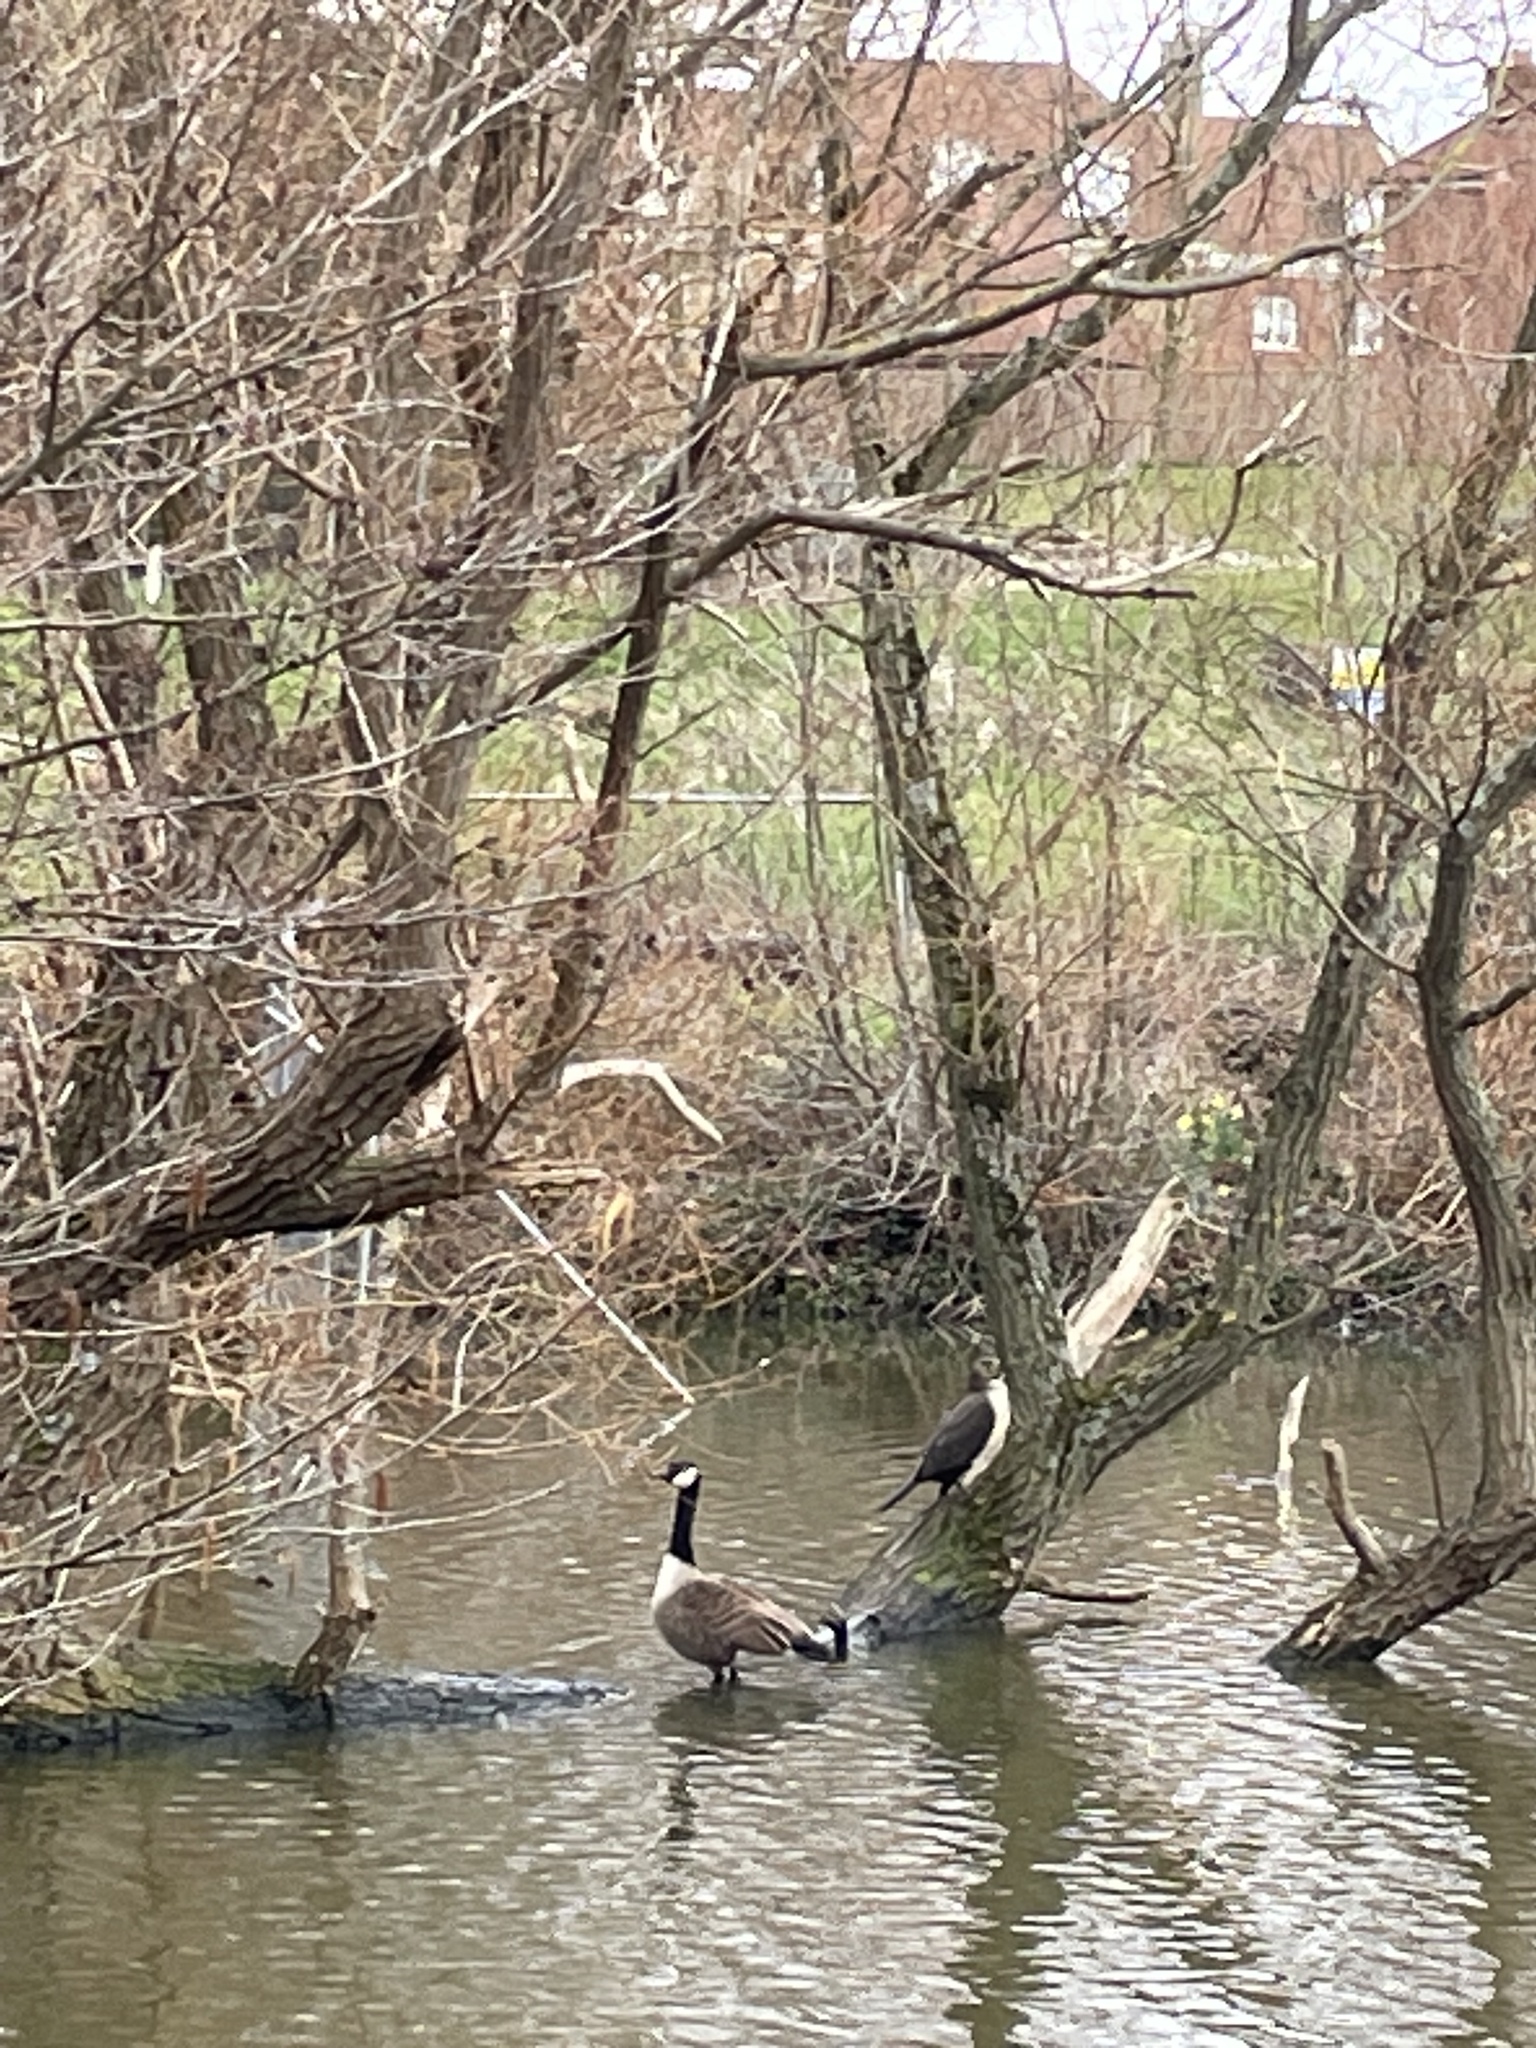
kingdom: Animalia
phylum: Chordata
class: Aves
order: Suliformes
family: Phalacrocoracidae
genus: Phalacrocorax
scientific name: Phalacrocorax carbo
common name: Great cormorant
